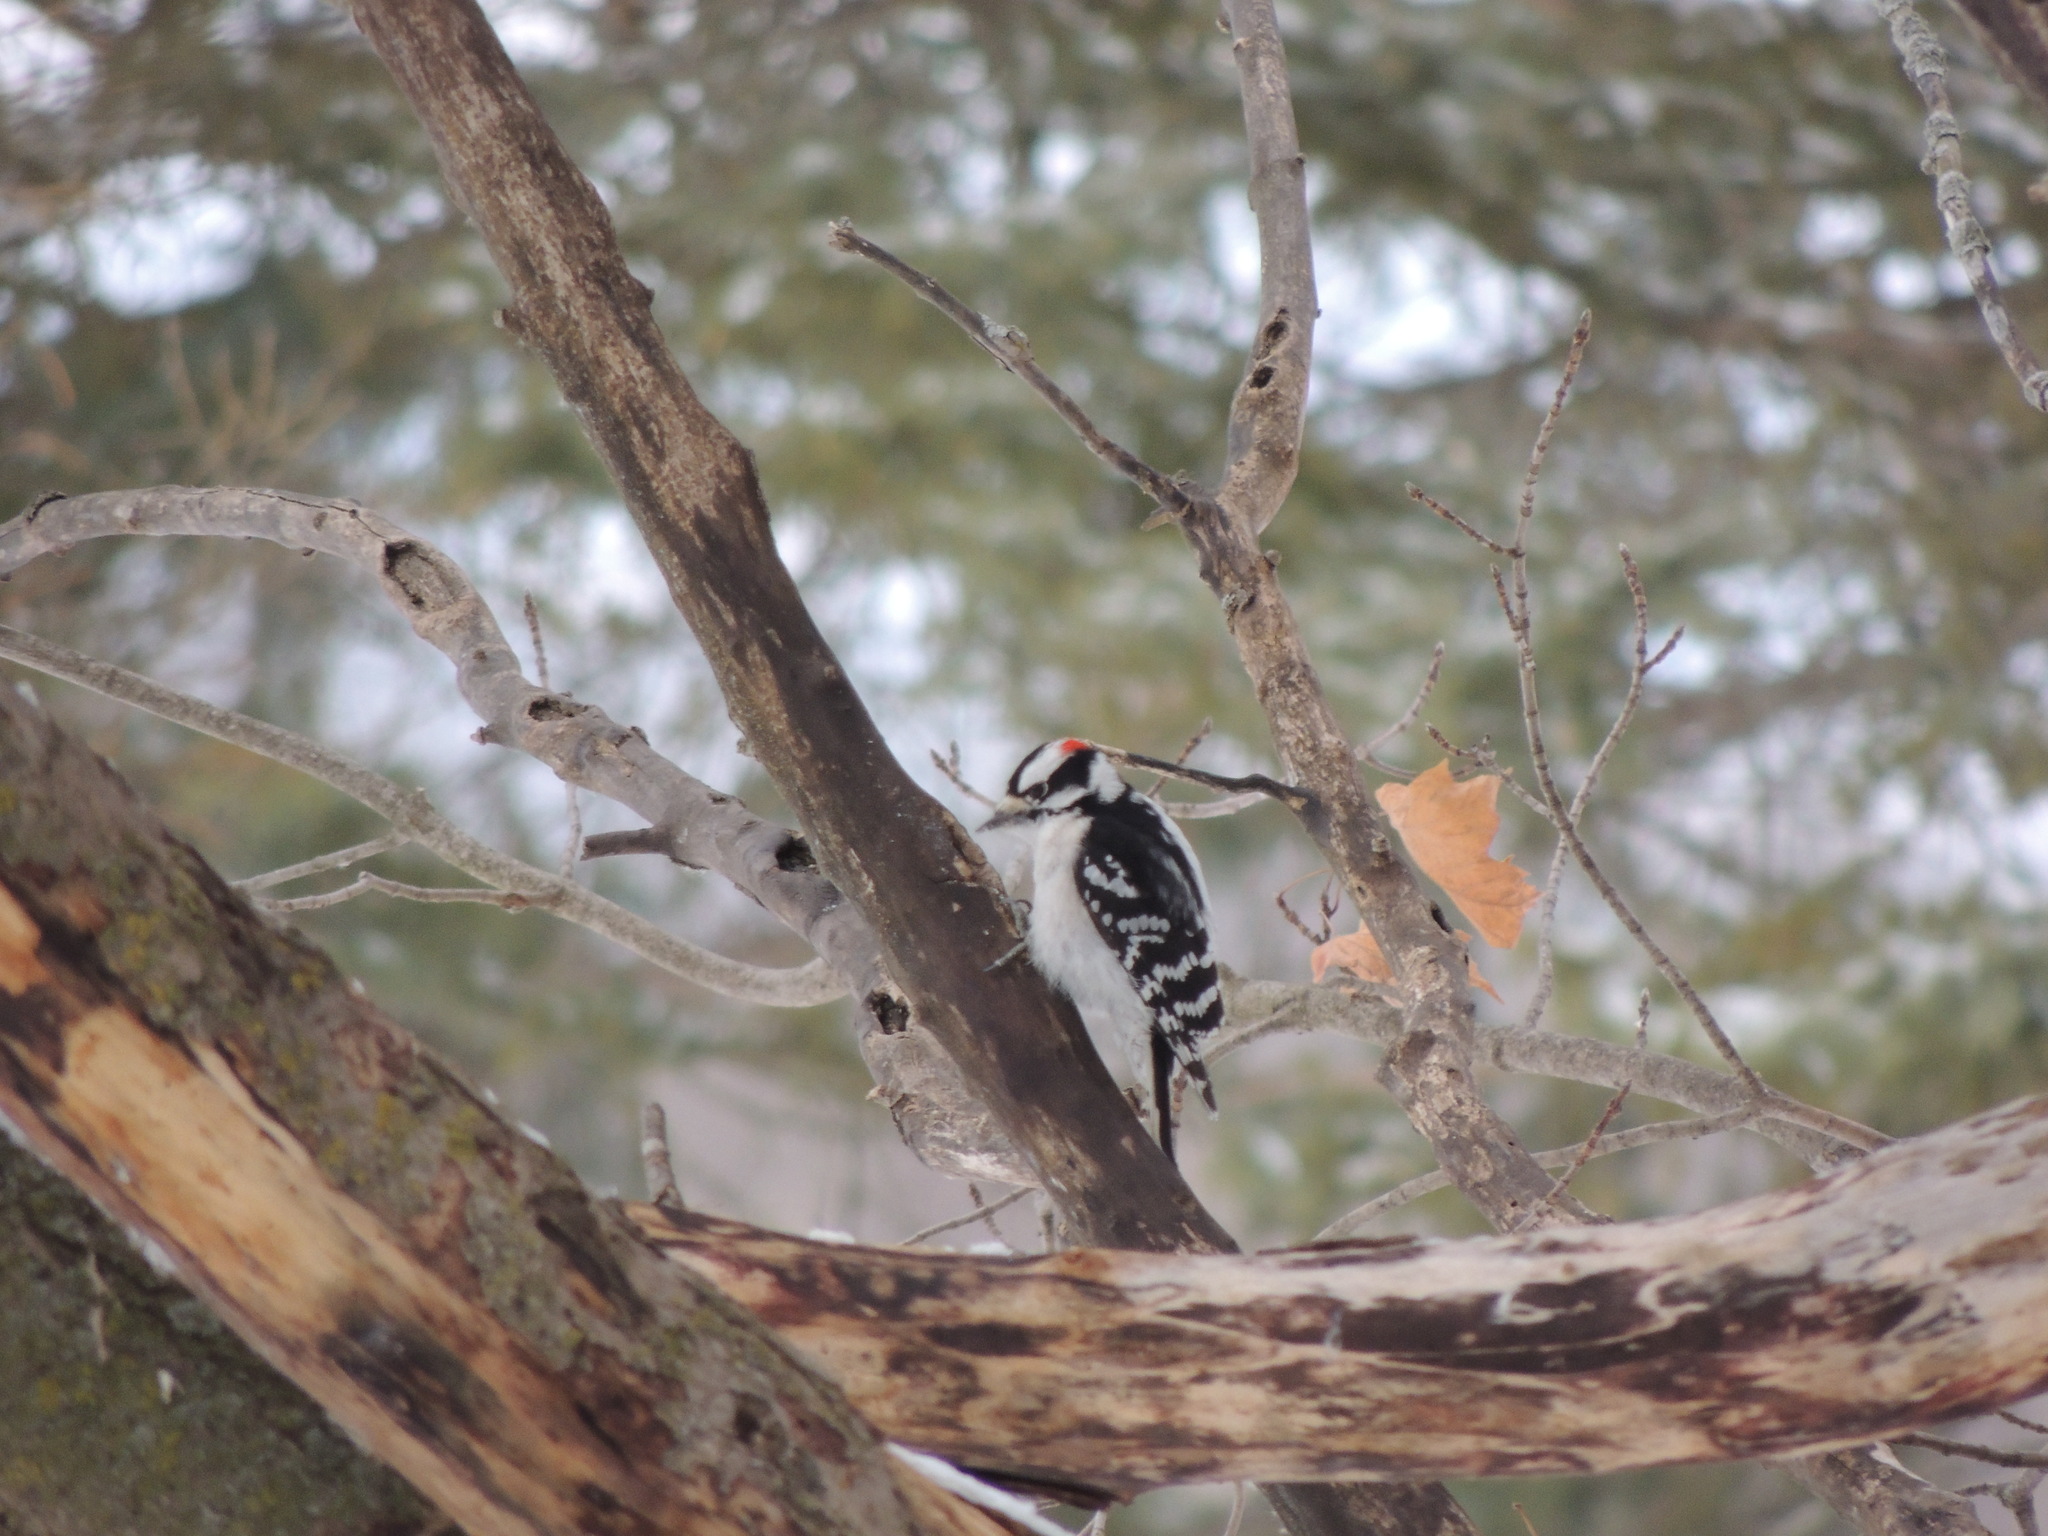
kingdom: Animalia
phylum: Chordata
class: Aves
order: Piciformes
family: Picidae
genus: Dryobates
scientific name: Dryobates pubescens
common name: Downy woodpecker
